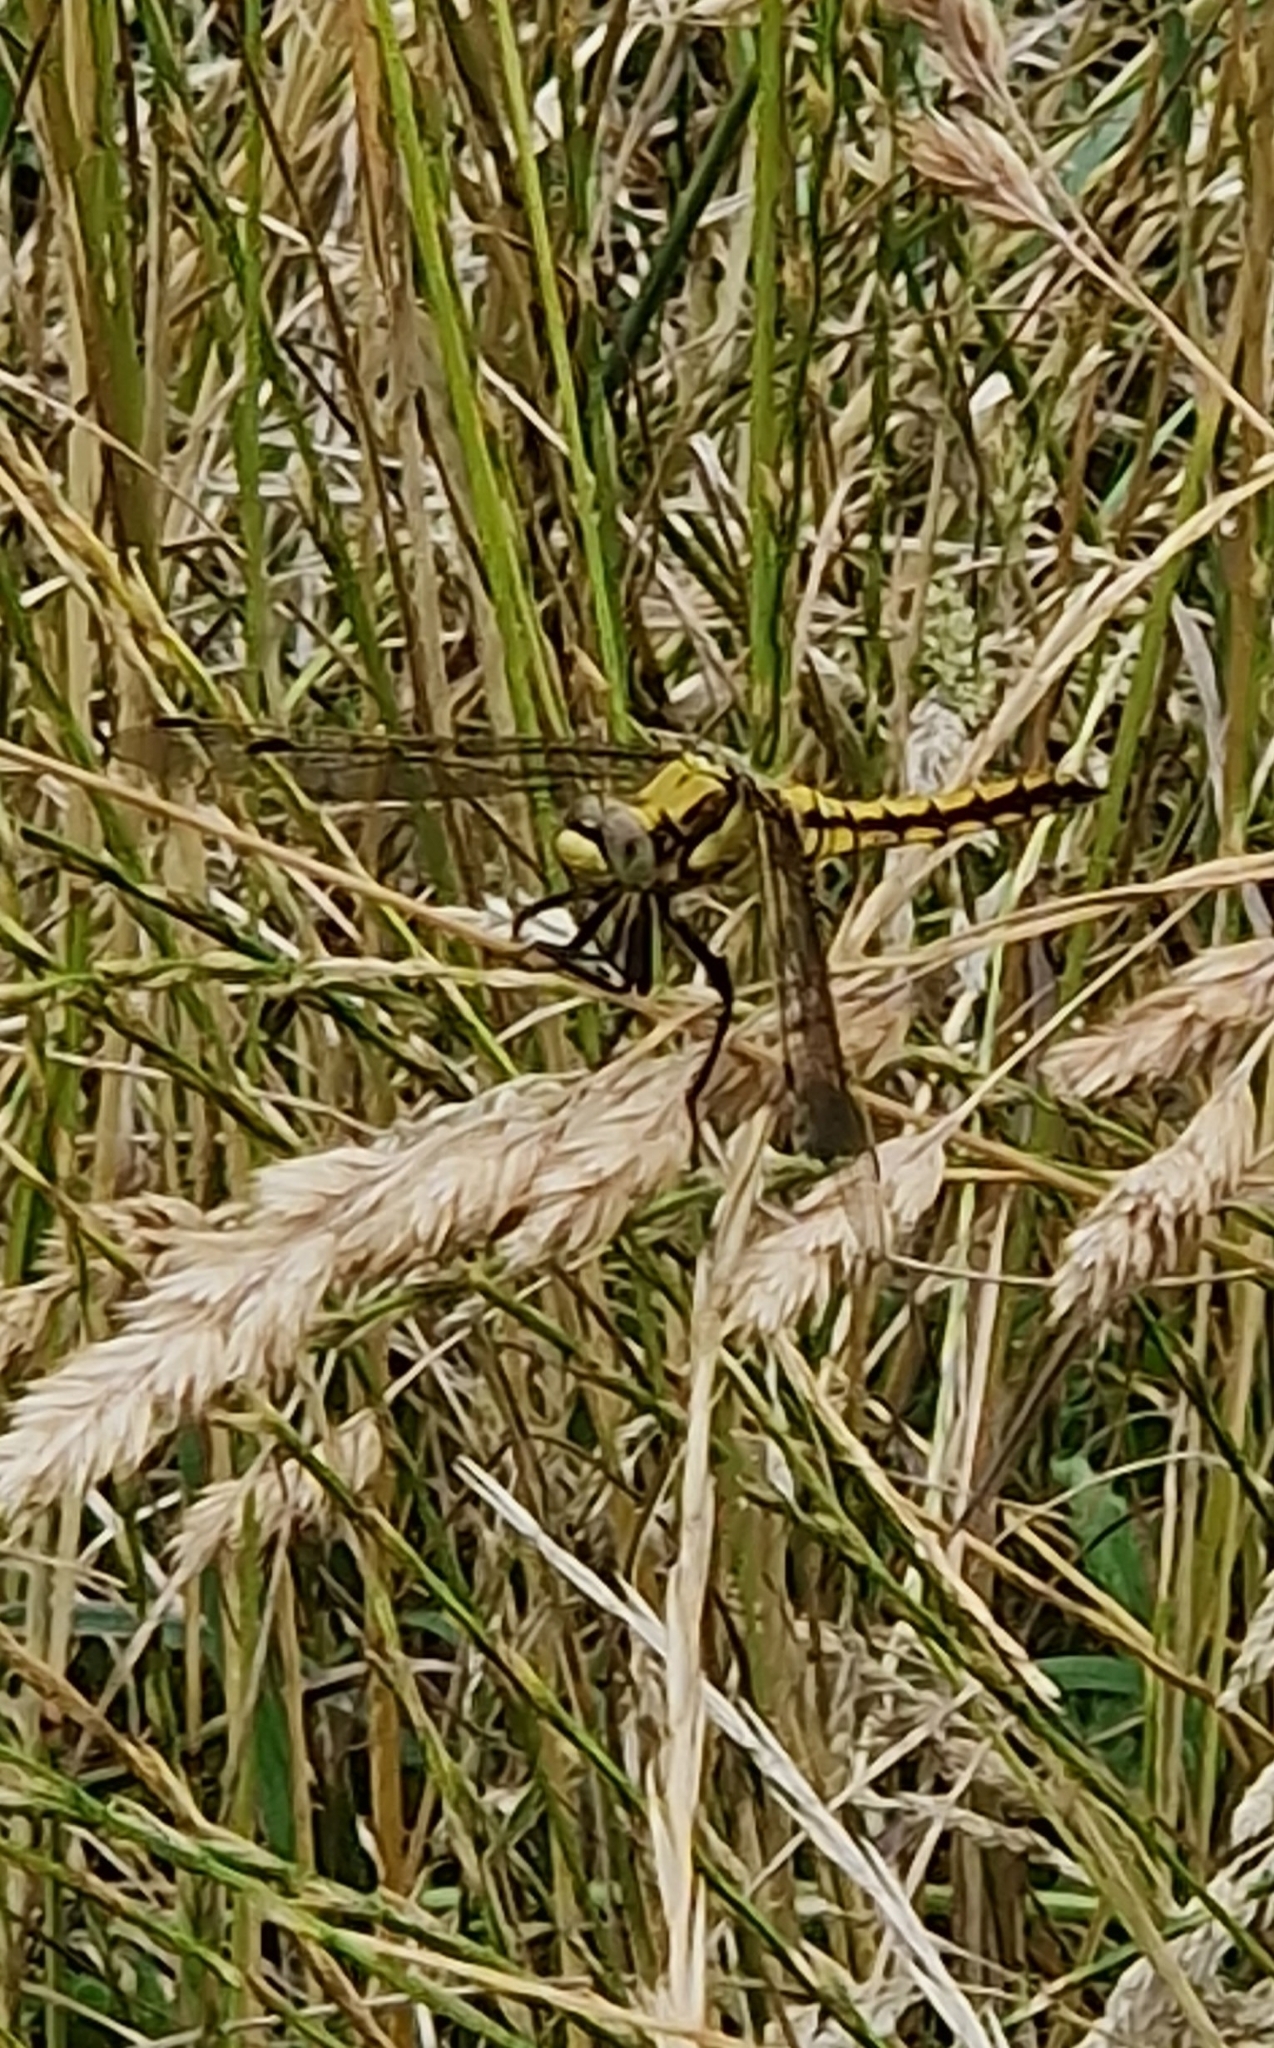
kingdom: Animalia
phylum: Arthropoda
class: Insecta
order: Odonata
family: Libellulidae
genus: Orthetrum
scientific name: Orthetrum cancellatum
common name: Black-tailed skimmer
